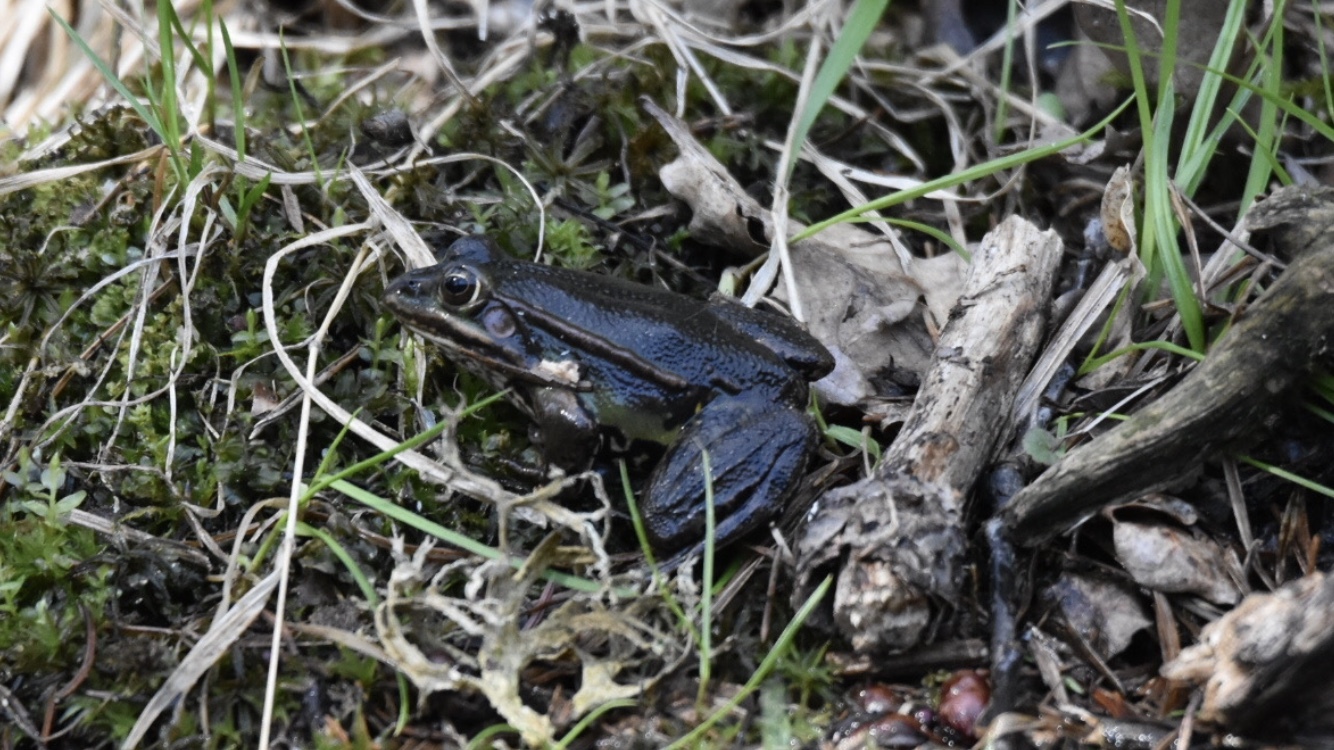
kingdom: Animalia
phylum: Chordata
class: Amphibia
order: Anura
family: Ranidae
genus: Pelophylax
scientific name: Pelophylax
